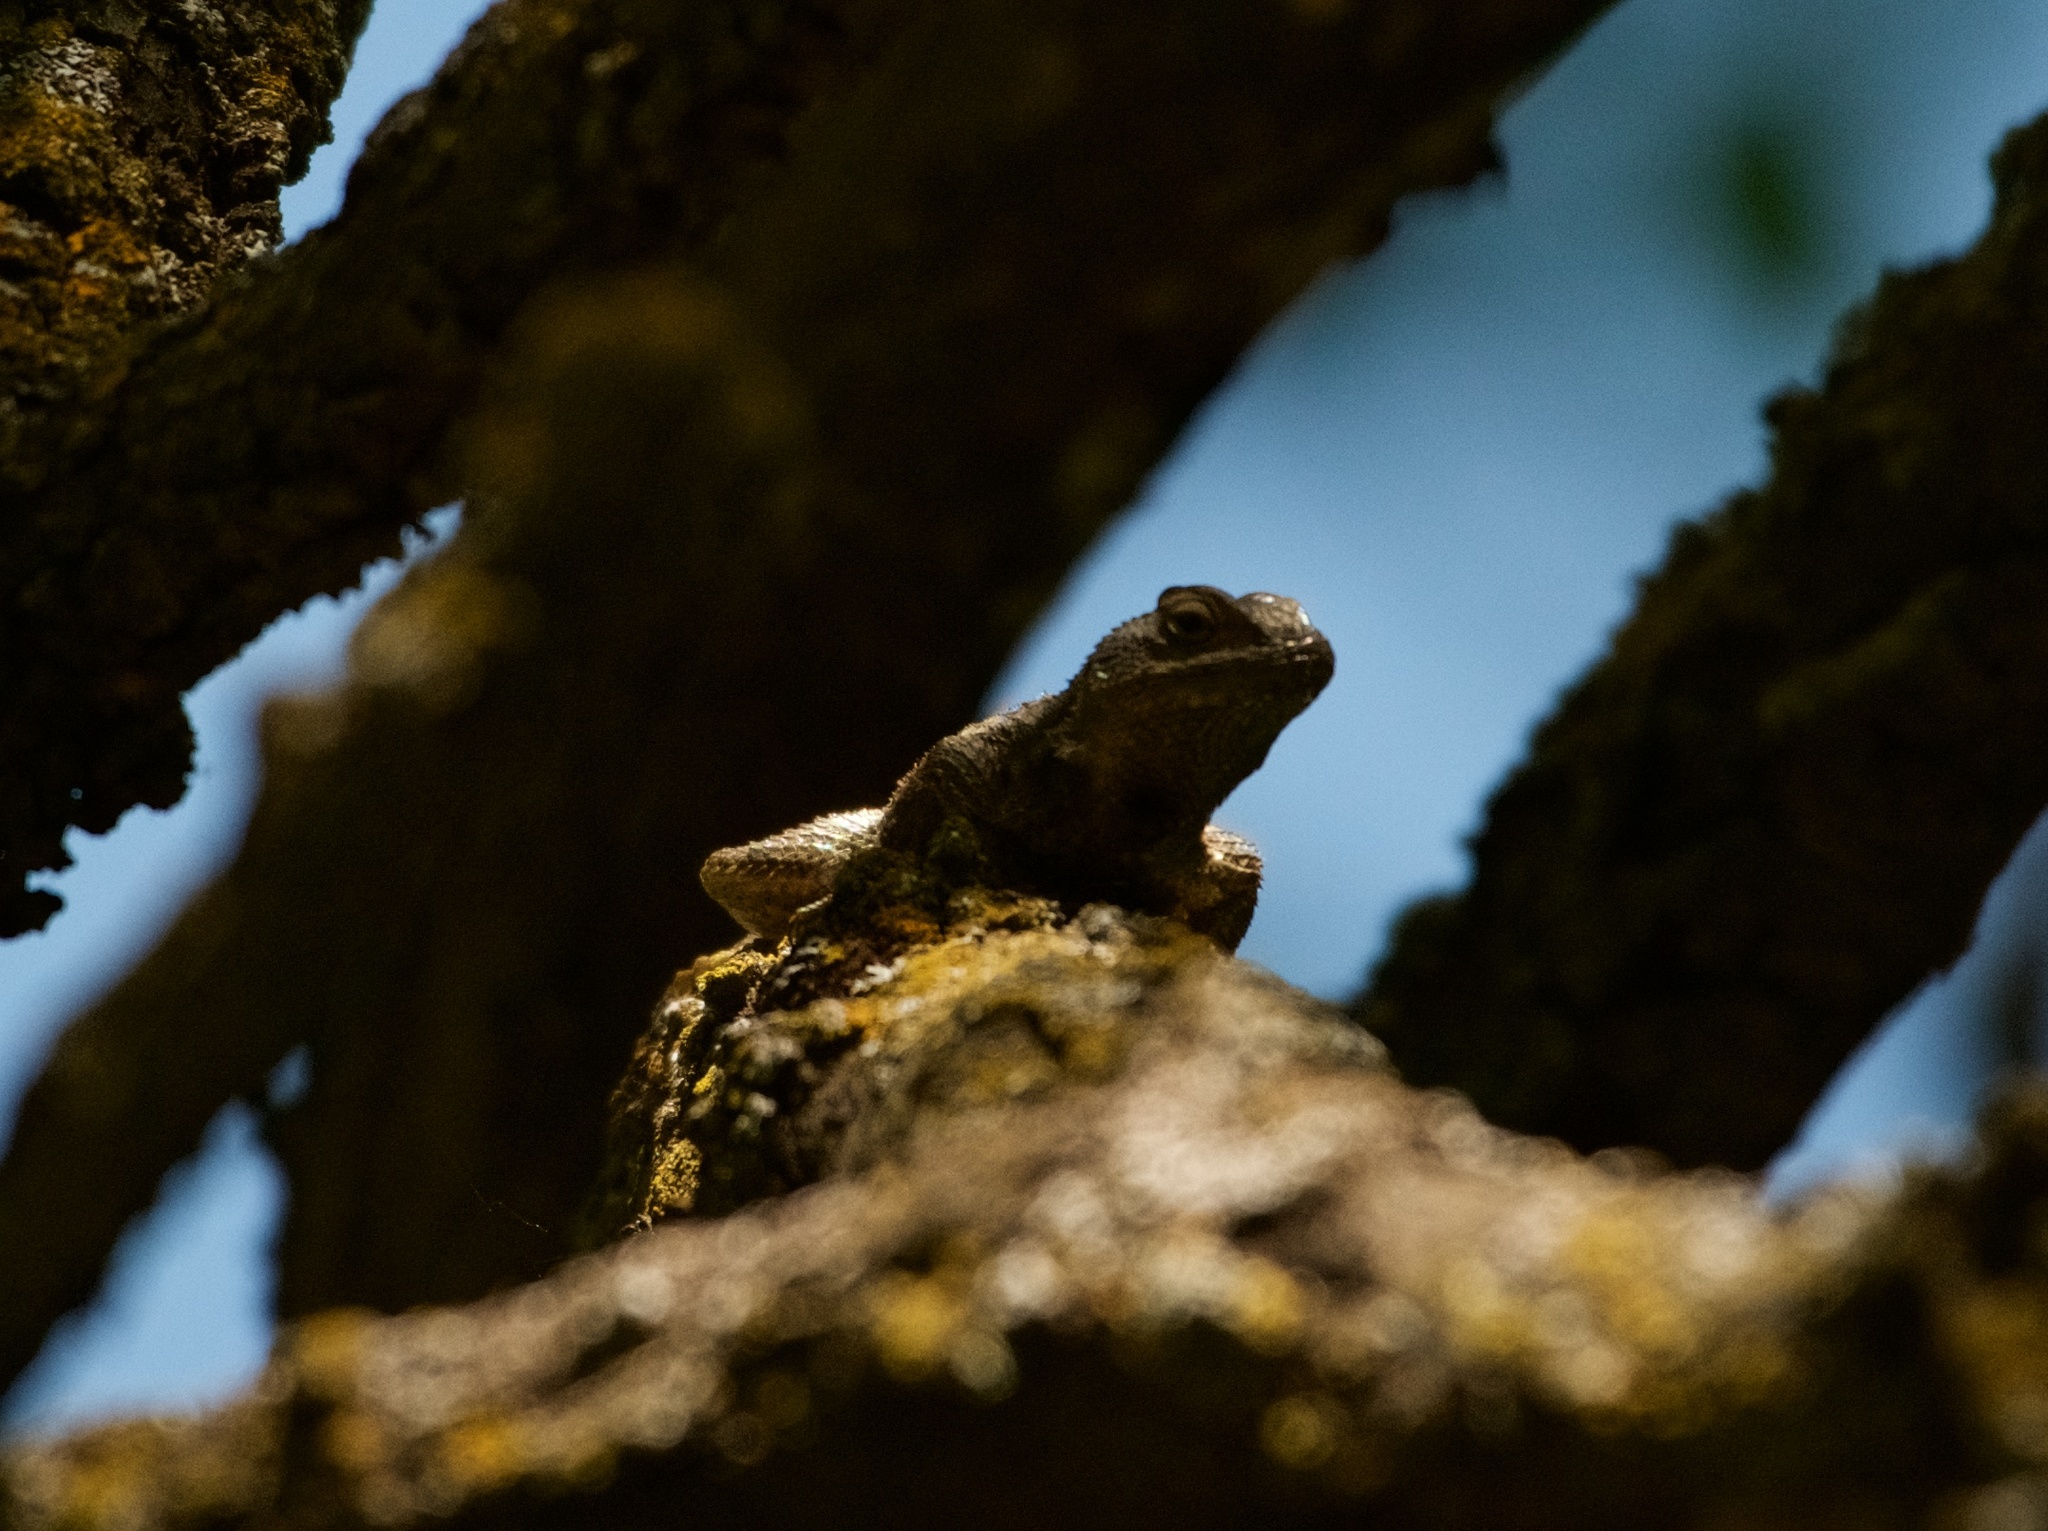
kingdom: Animalia
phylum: Chordata
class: Squamata
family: Phrynosomatidae
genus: Sceloporus
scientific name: Sceloporus occidentalis
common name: Western fence lizard
